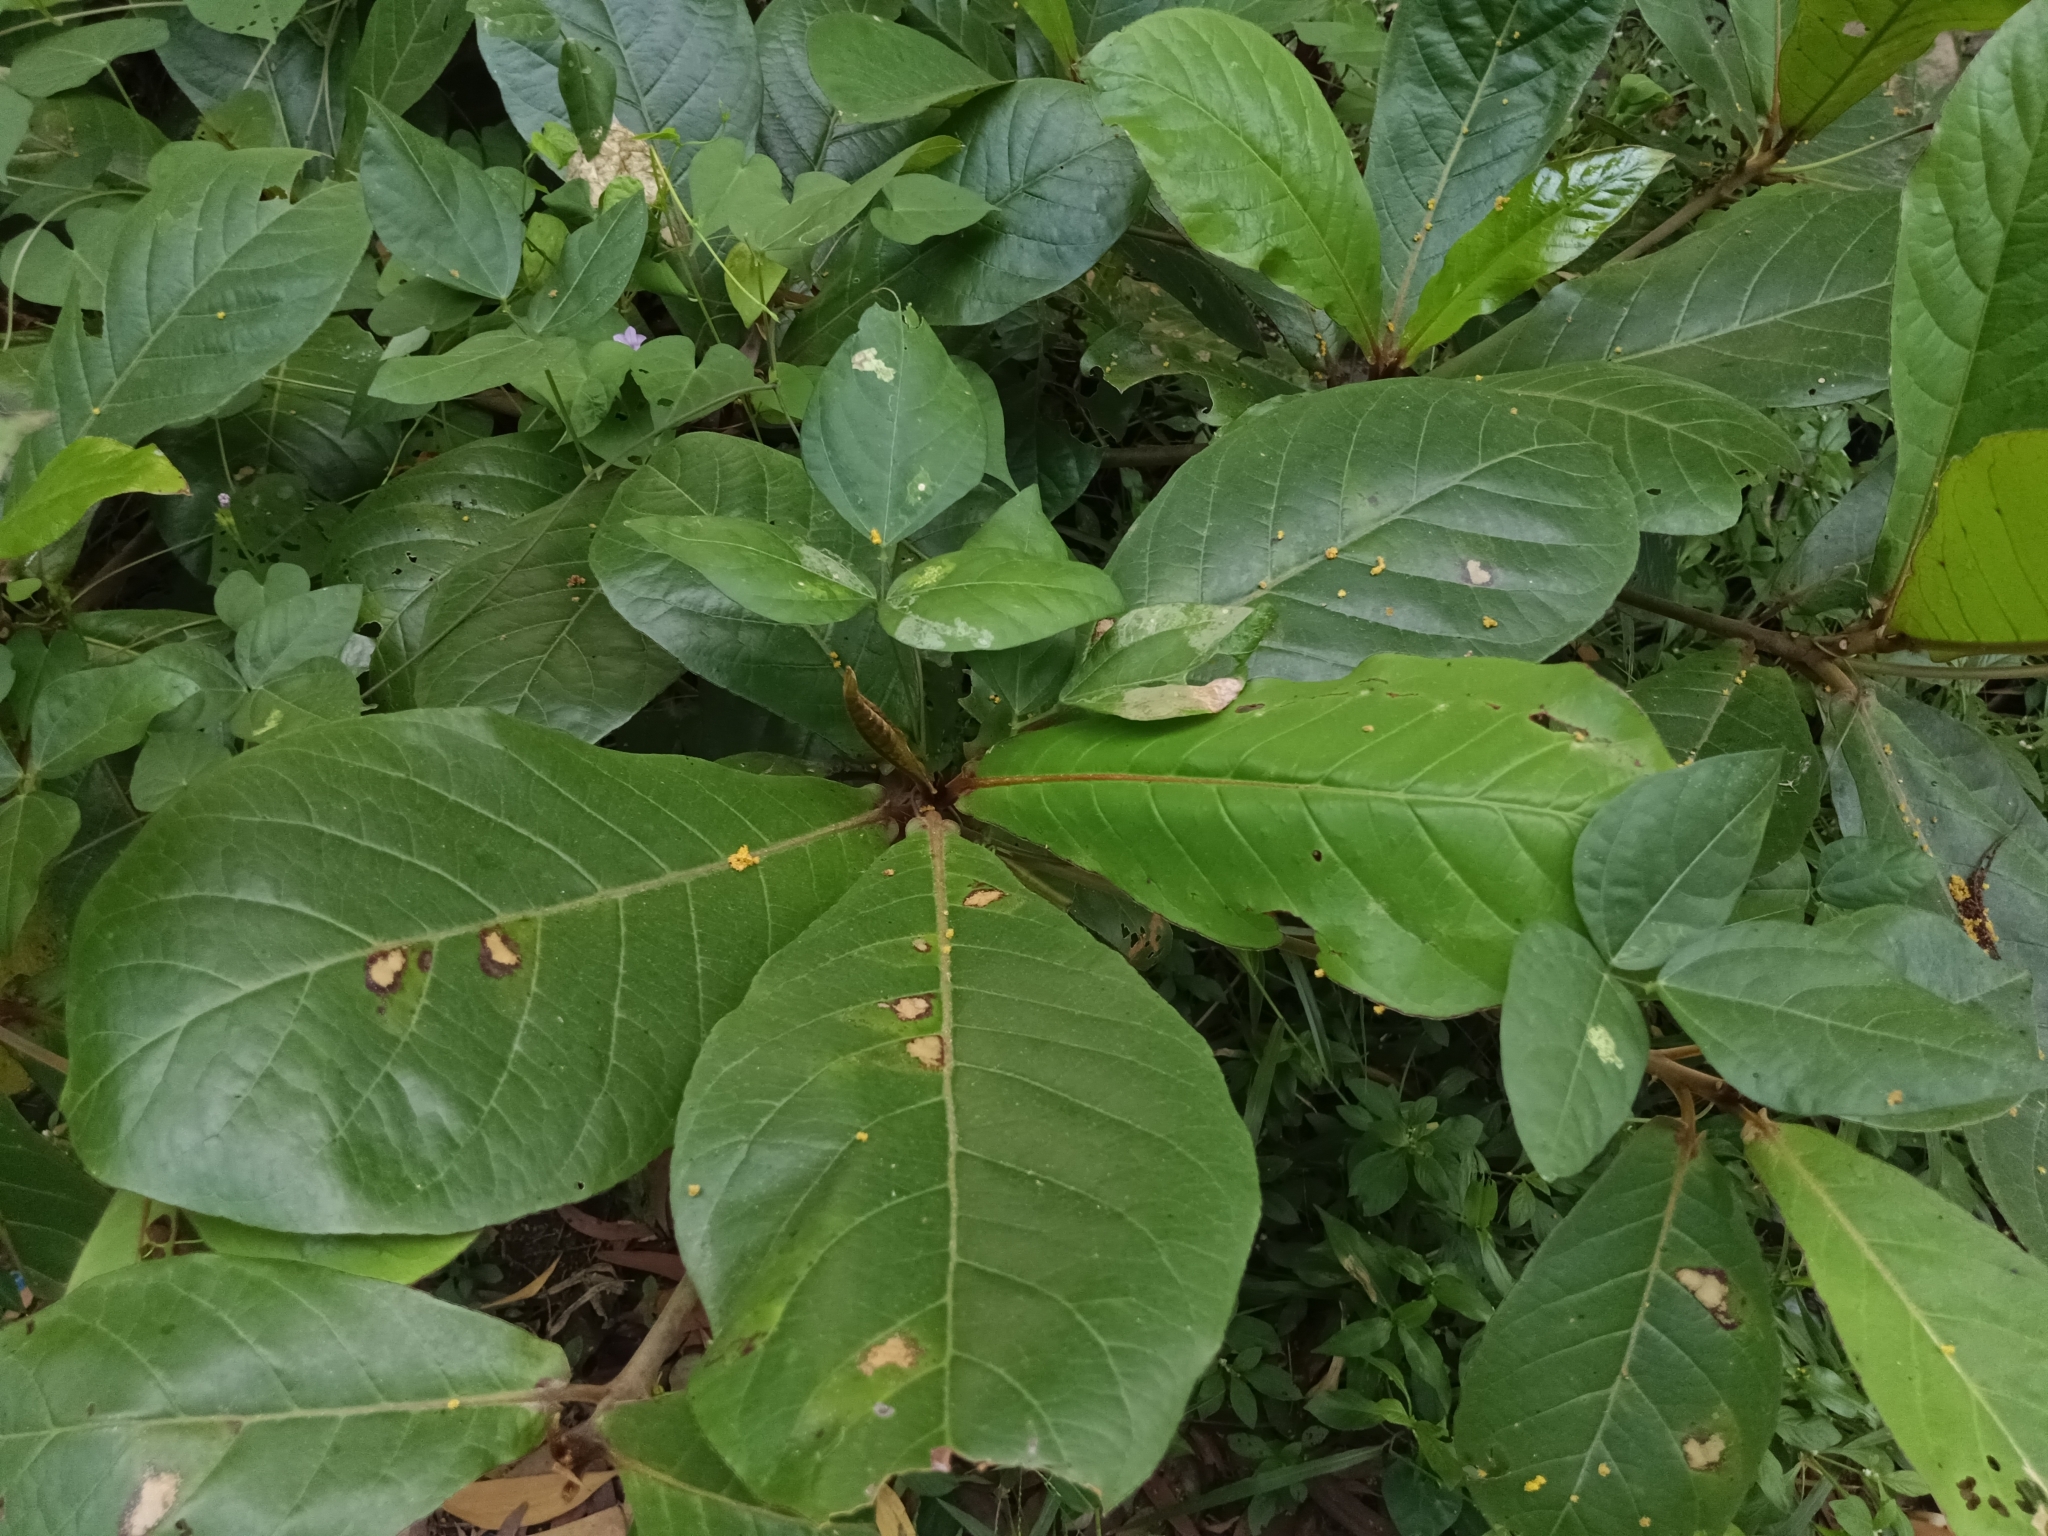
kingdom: Plantae
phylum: Tracheophyta
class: Magnoliopsida
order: Myrtales
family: Combretaceae
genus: Terminalia
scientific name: Terminalia catappa
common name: Tropical almond
